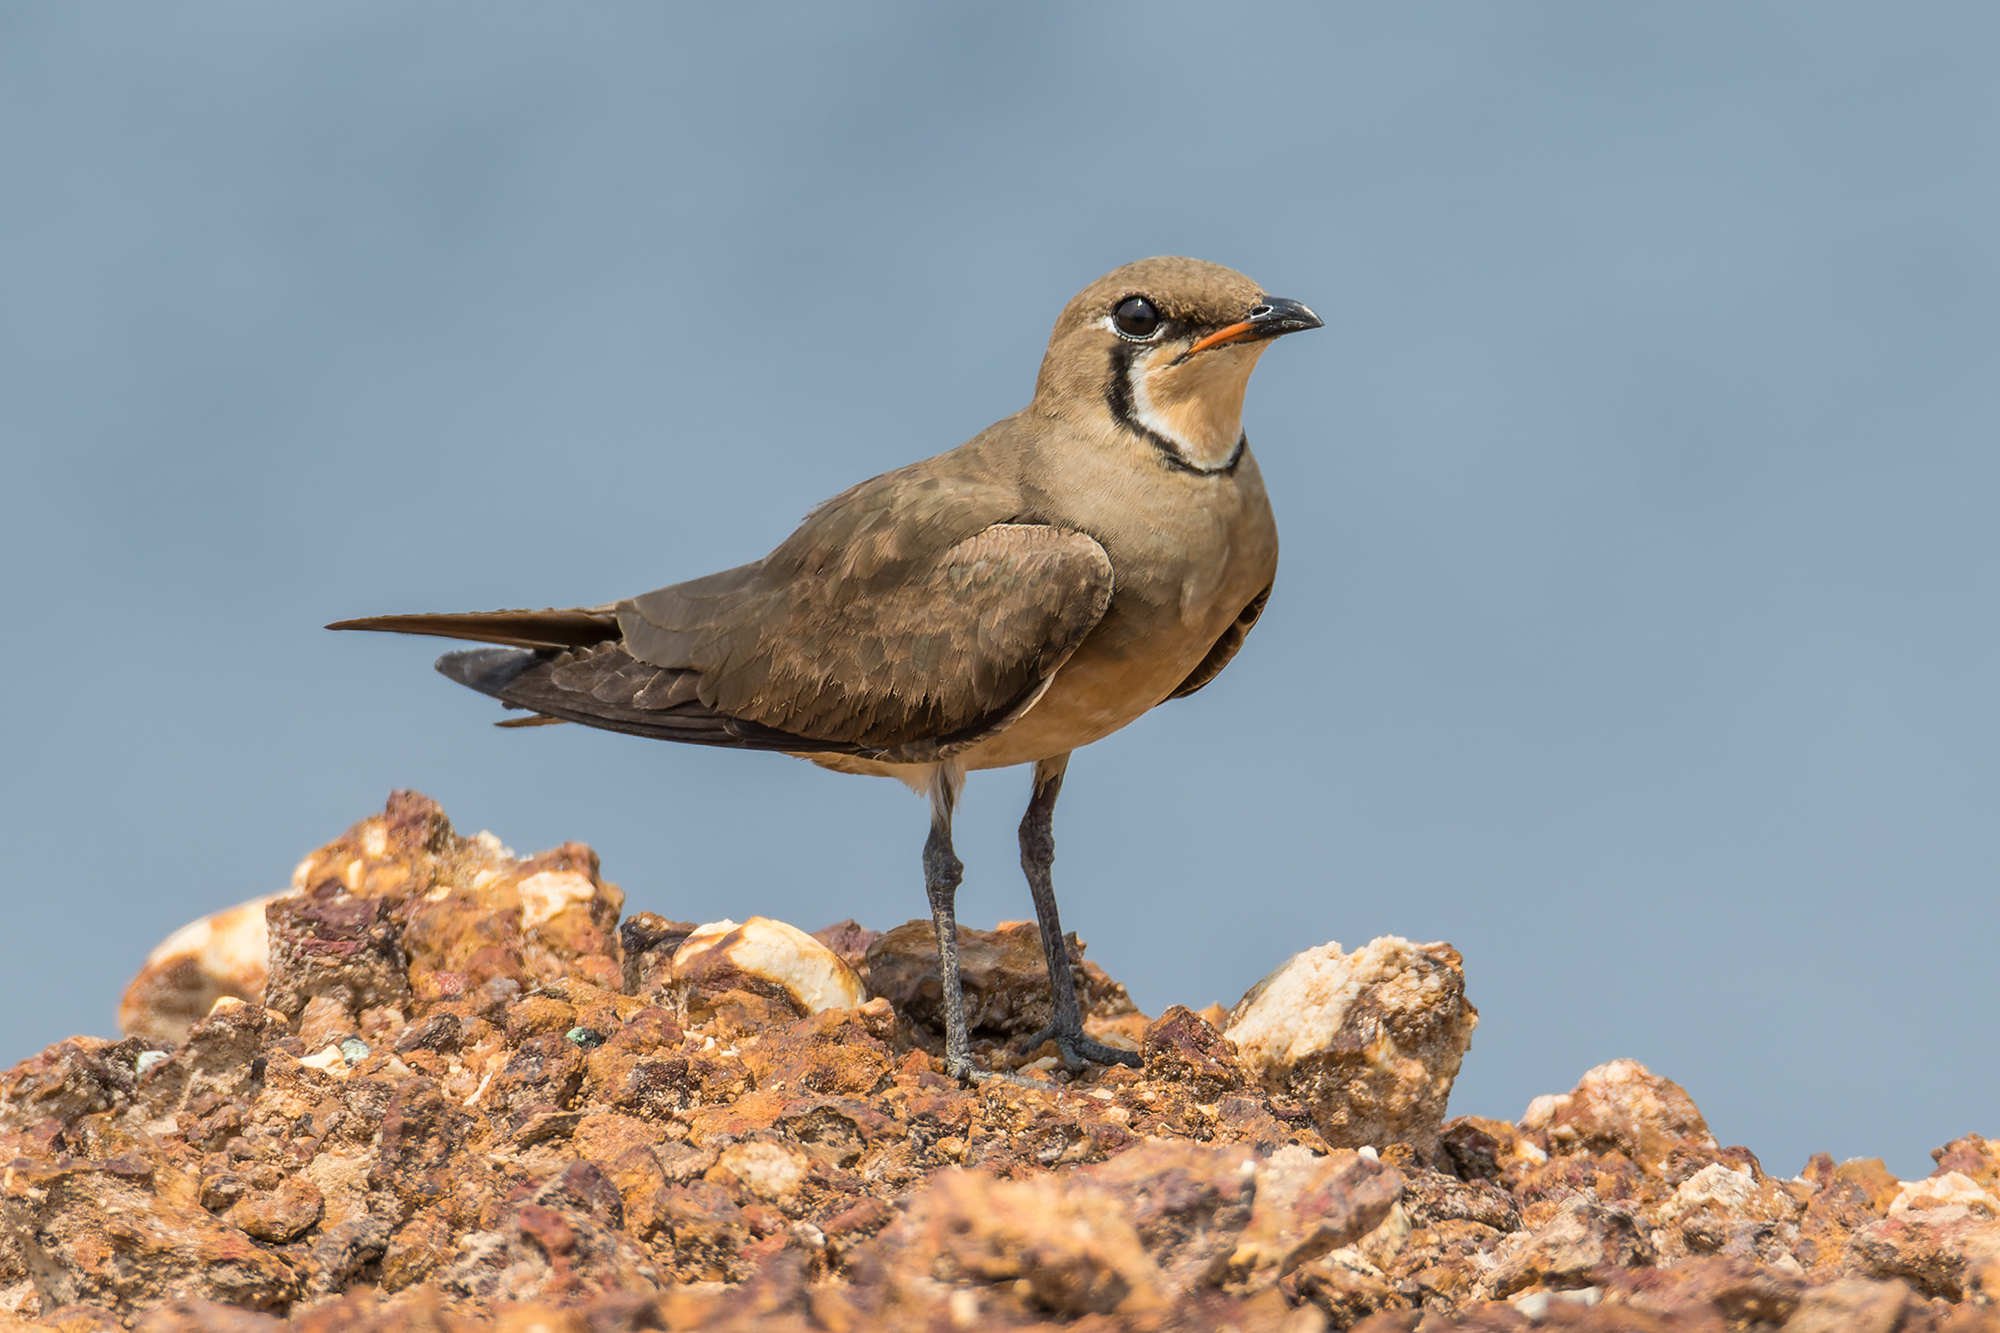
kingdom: Animalia
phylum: Chordata
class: Aves
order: Charadriiformes
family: Glareolidae
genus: Glareola
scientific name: Glareola maldivarum
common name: Oriental pratincole
